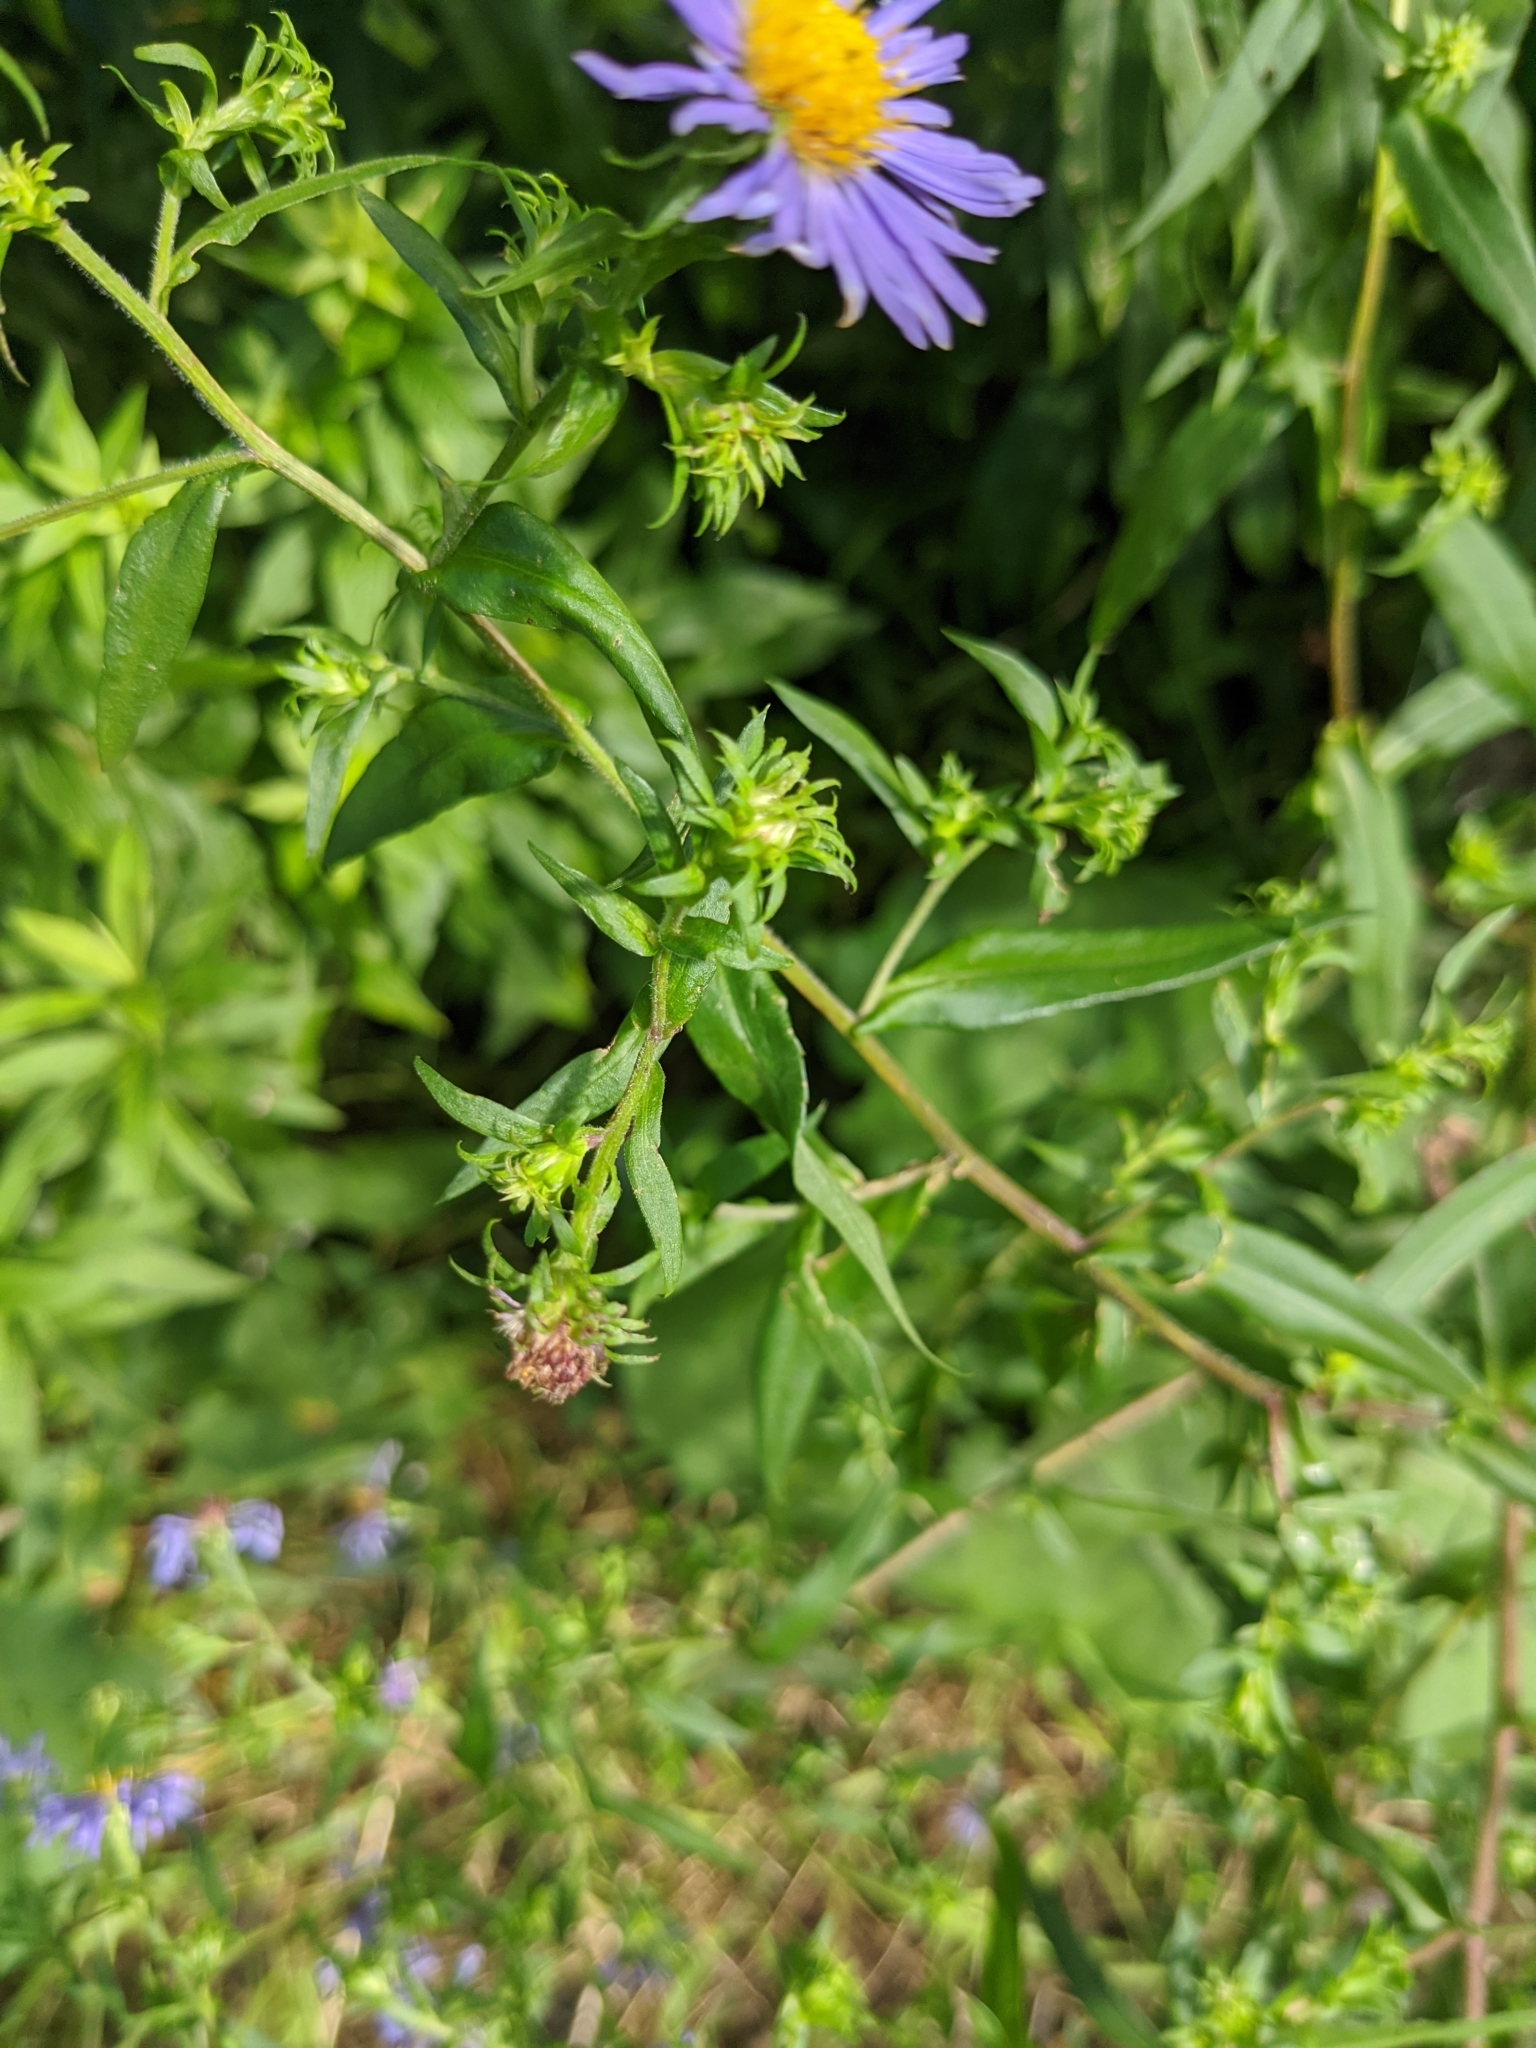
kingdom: Plantae
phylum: Tracheophyta
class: Magnoliopsida
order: Asterales
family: Asteraceae
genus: Symphyotrichum
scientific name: Symphyotrichum novae-angliae
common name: Michaelmas daisy
